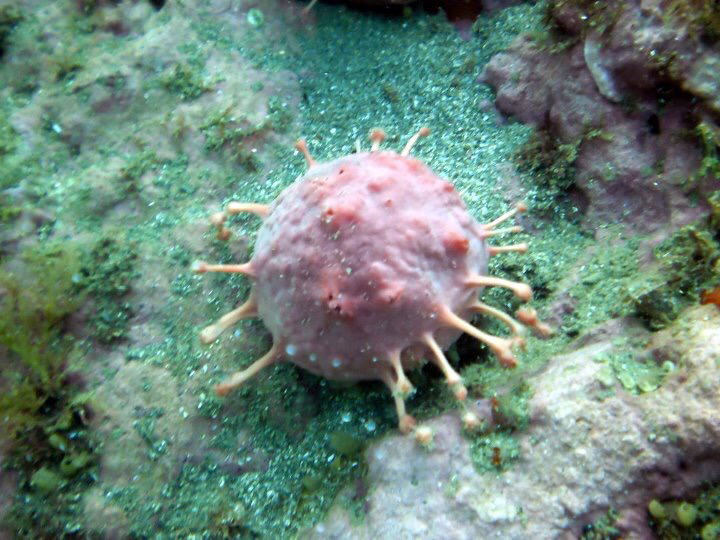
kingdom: Animalia
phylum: Porifera
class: Demospongiae
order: Tethyida
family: Tethyidae
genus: Tethya
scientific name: Tethya bergquistae
